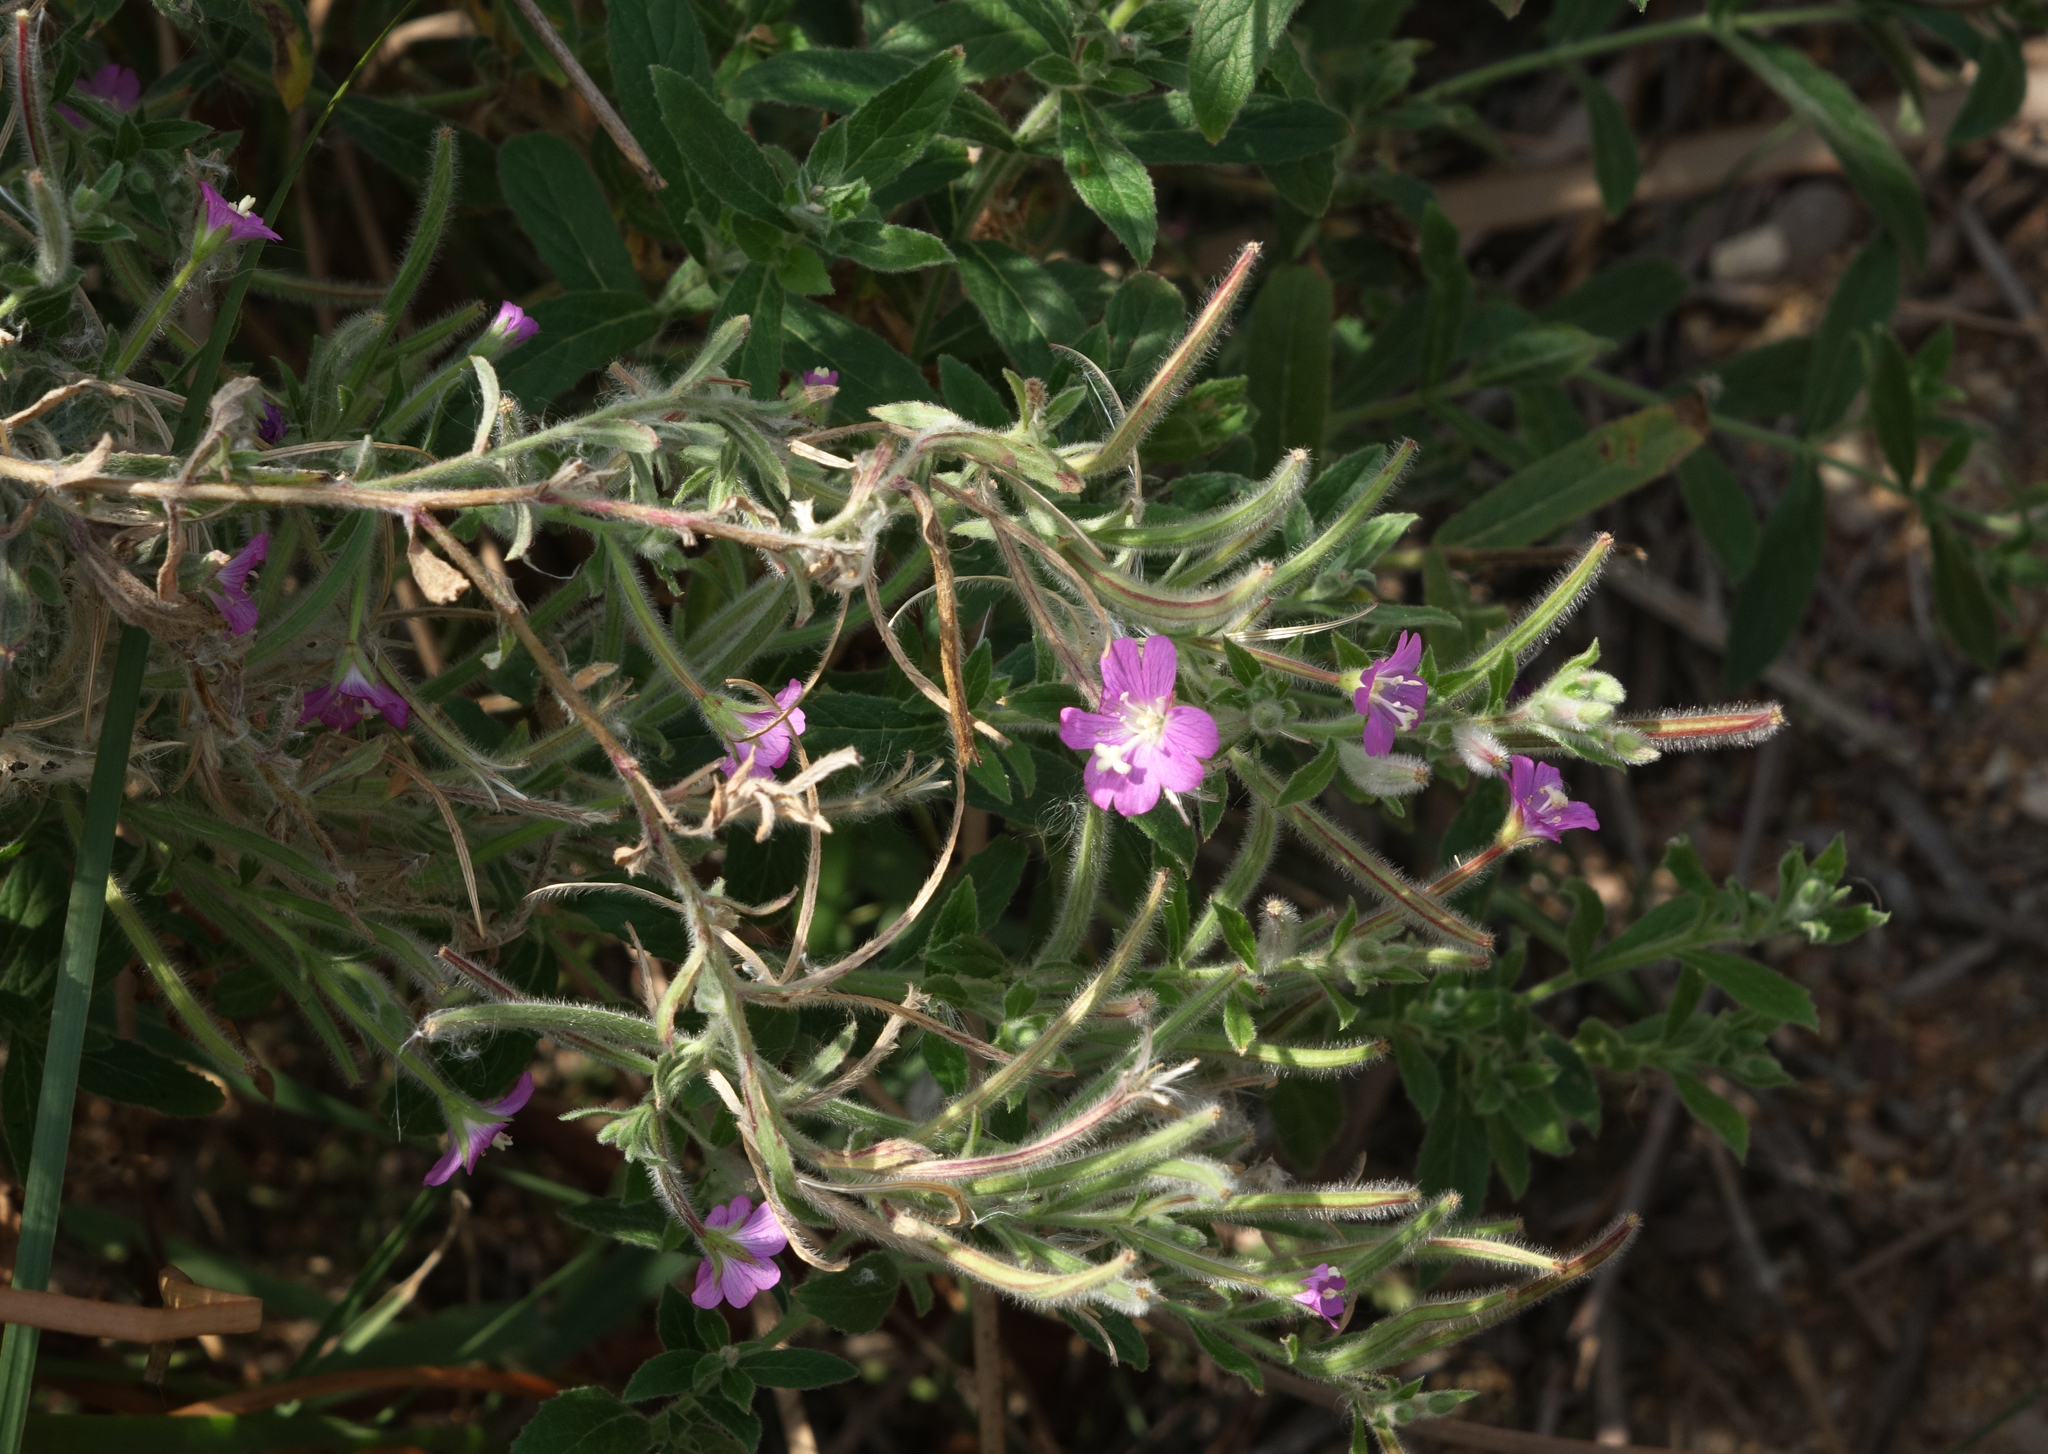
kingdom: Plantae
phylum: Tracheophyta
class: Magnoliopsida
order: Myrtales
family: Onagraceae
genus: Epilobium
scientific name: Epilobium hirsutum
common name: Great willowherb
